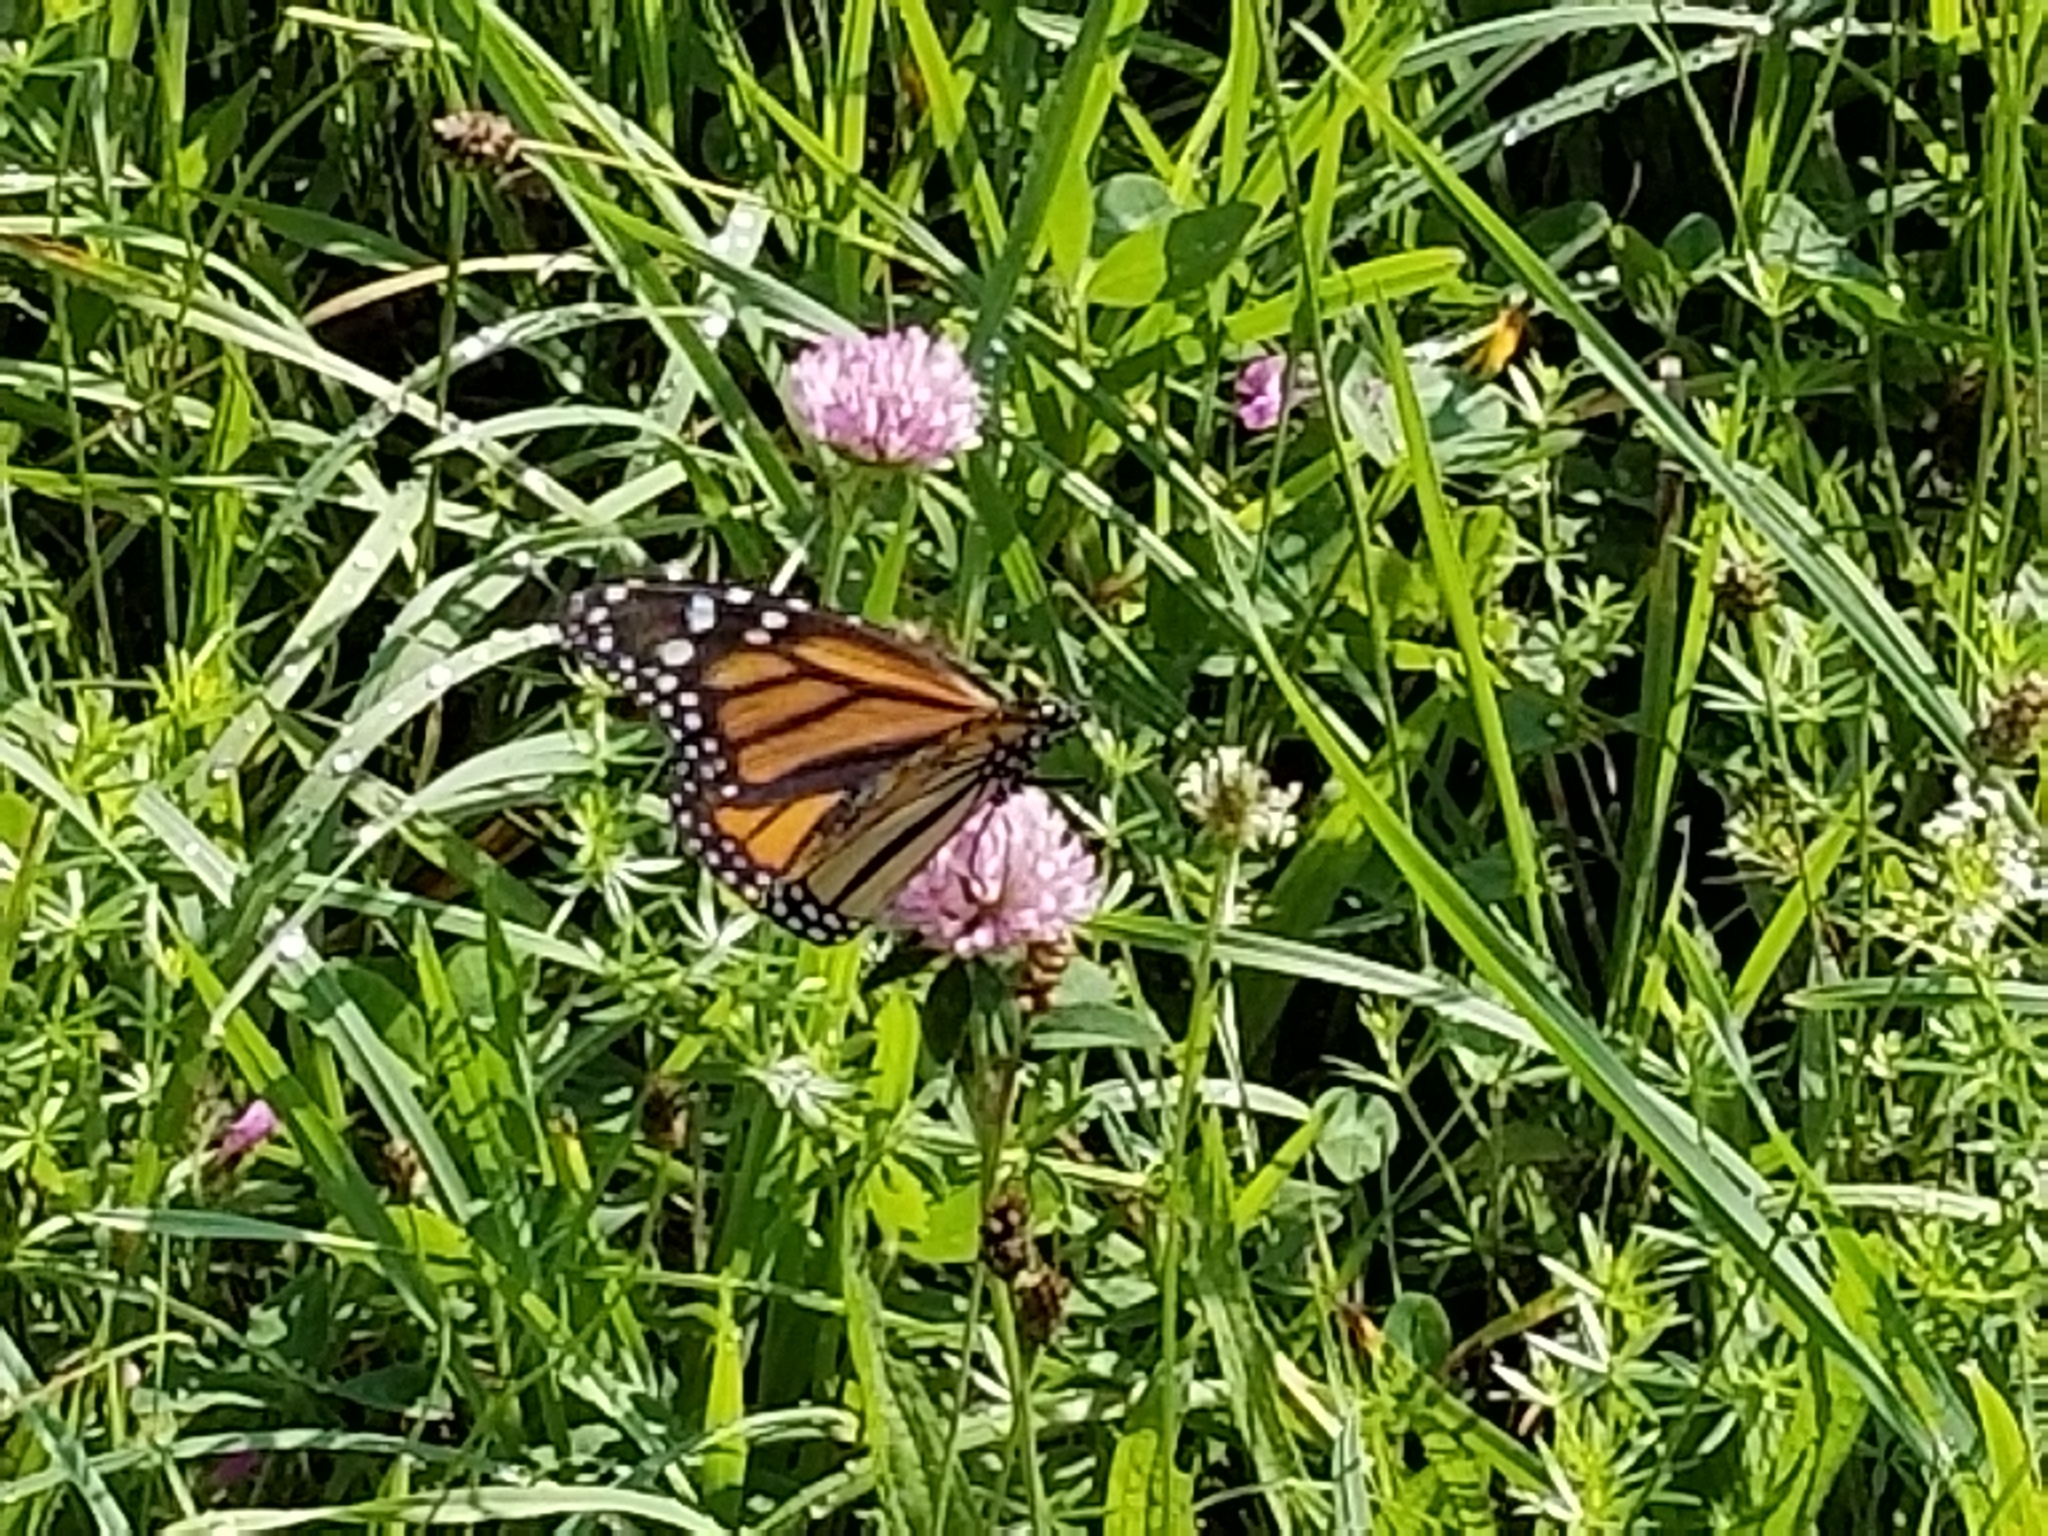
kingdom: Animalia
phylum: Arthropoda
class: Insecta
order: Lepidoptera
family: Nymphalidae
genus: Danaus
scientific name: Danaus plexippus
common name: Monarch
